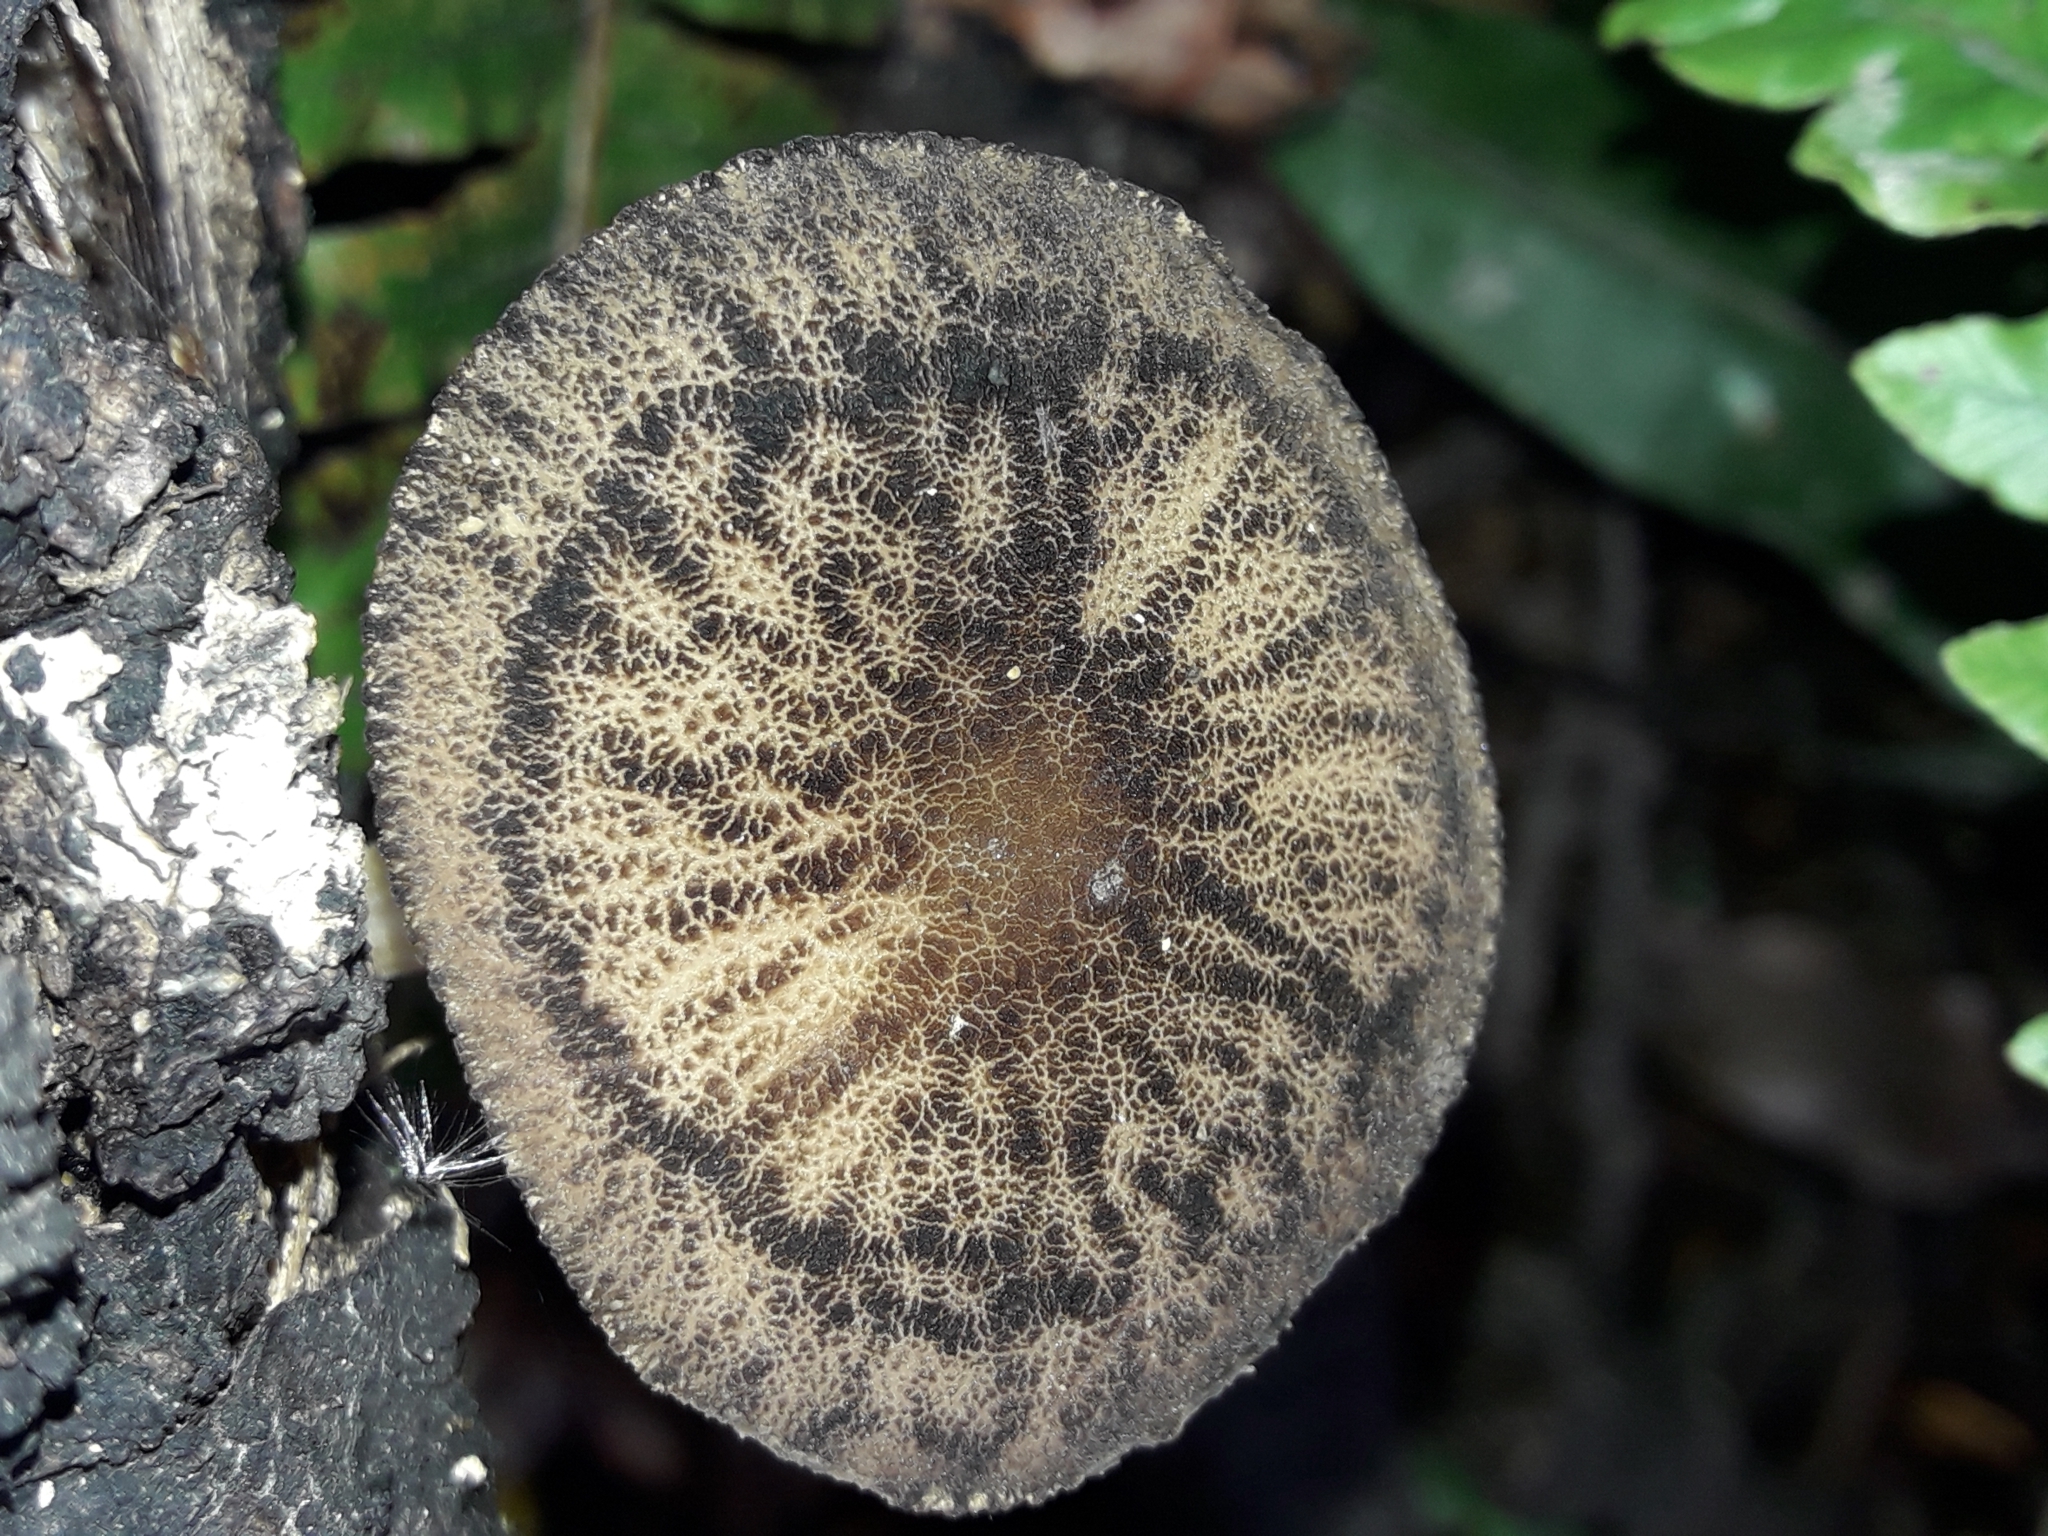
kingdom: Fungi
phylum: Basidiomycota
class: Agaricomycetes
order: Agaricales
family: Pluteaceae
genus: Pluteus
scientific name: Pluteus readiarum
